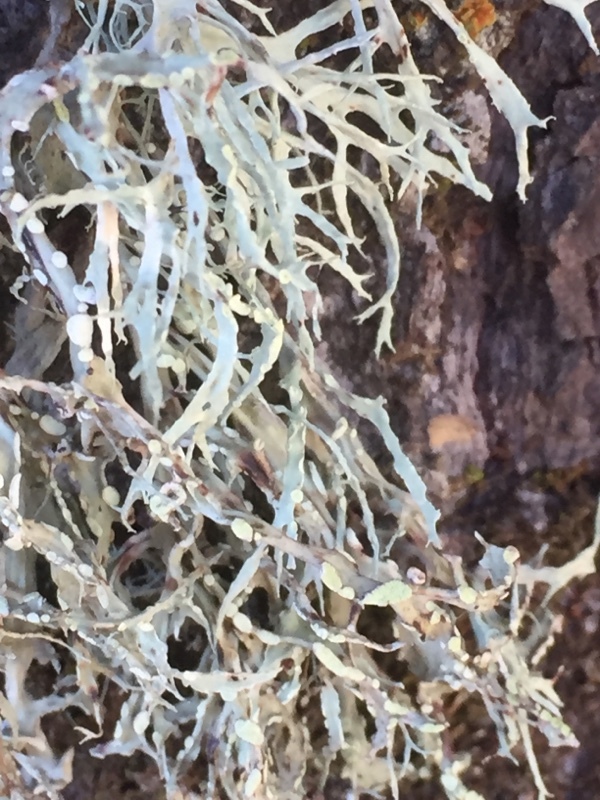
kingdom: Fungi
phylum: Ascomycota
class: Lecanoromycetes
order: Lecanorales
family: Ramalinaceae
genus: Ramalina
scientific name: Ramalina farinacea
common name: Farinose cartilage lichen
